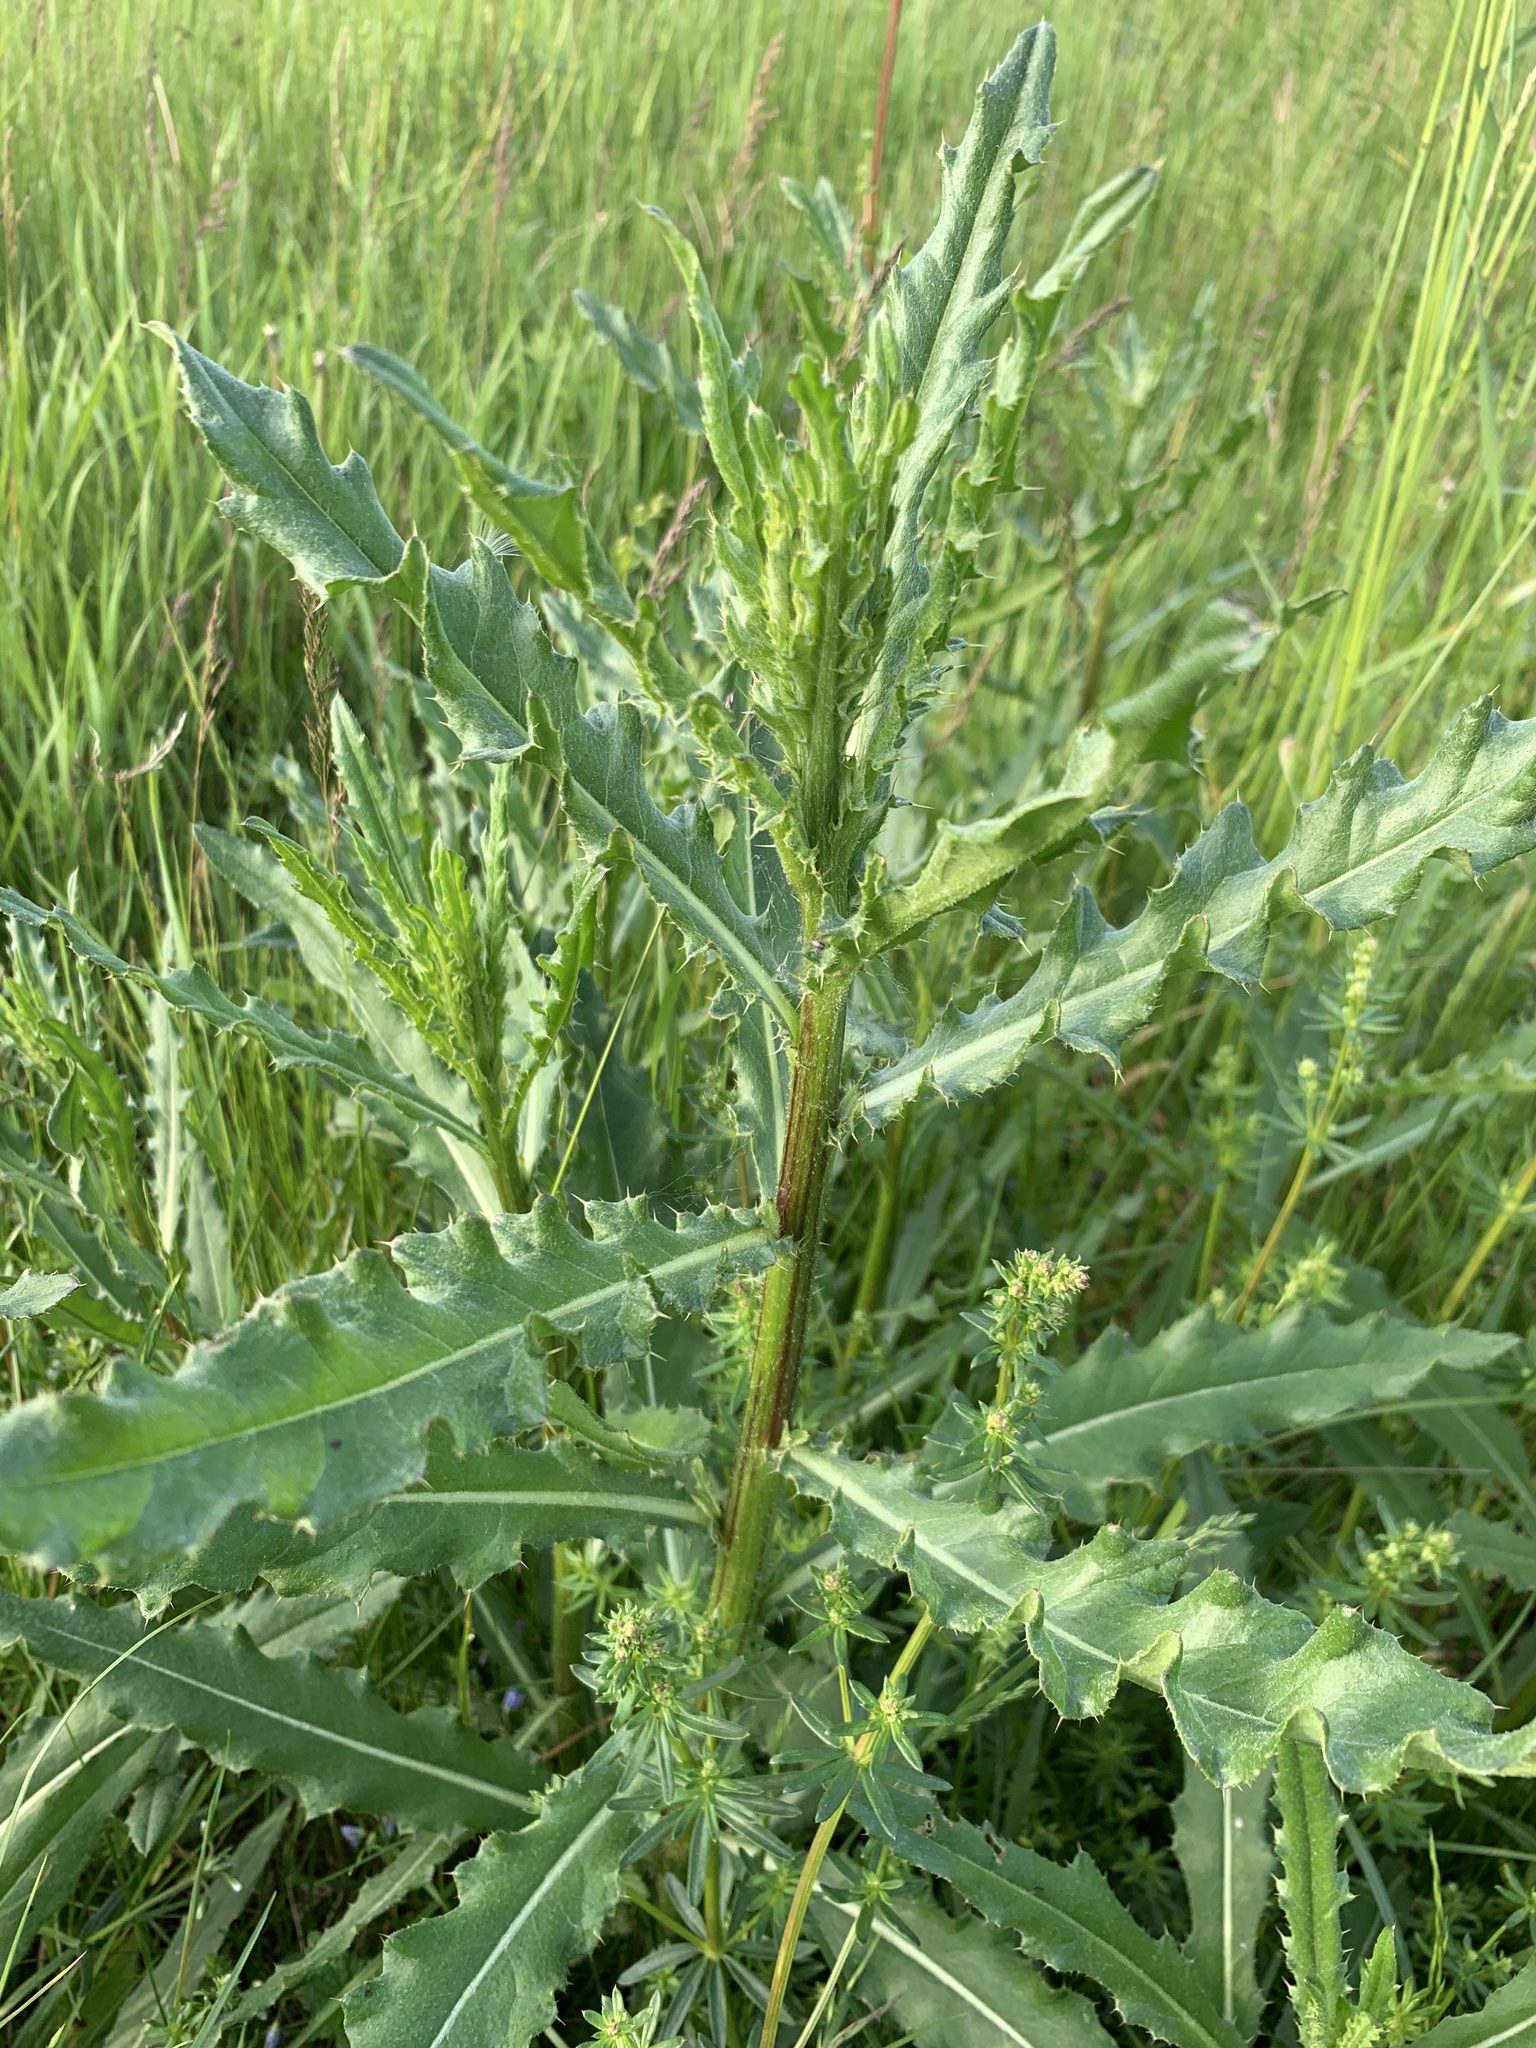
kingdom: Plantae
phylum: Tracheophyta
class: Magnoliopsida
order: Asterales
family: Asteraceae
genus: Cirsium
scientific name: Cirsium arvense
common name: Creeping thistle
